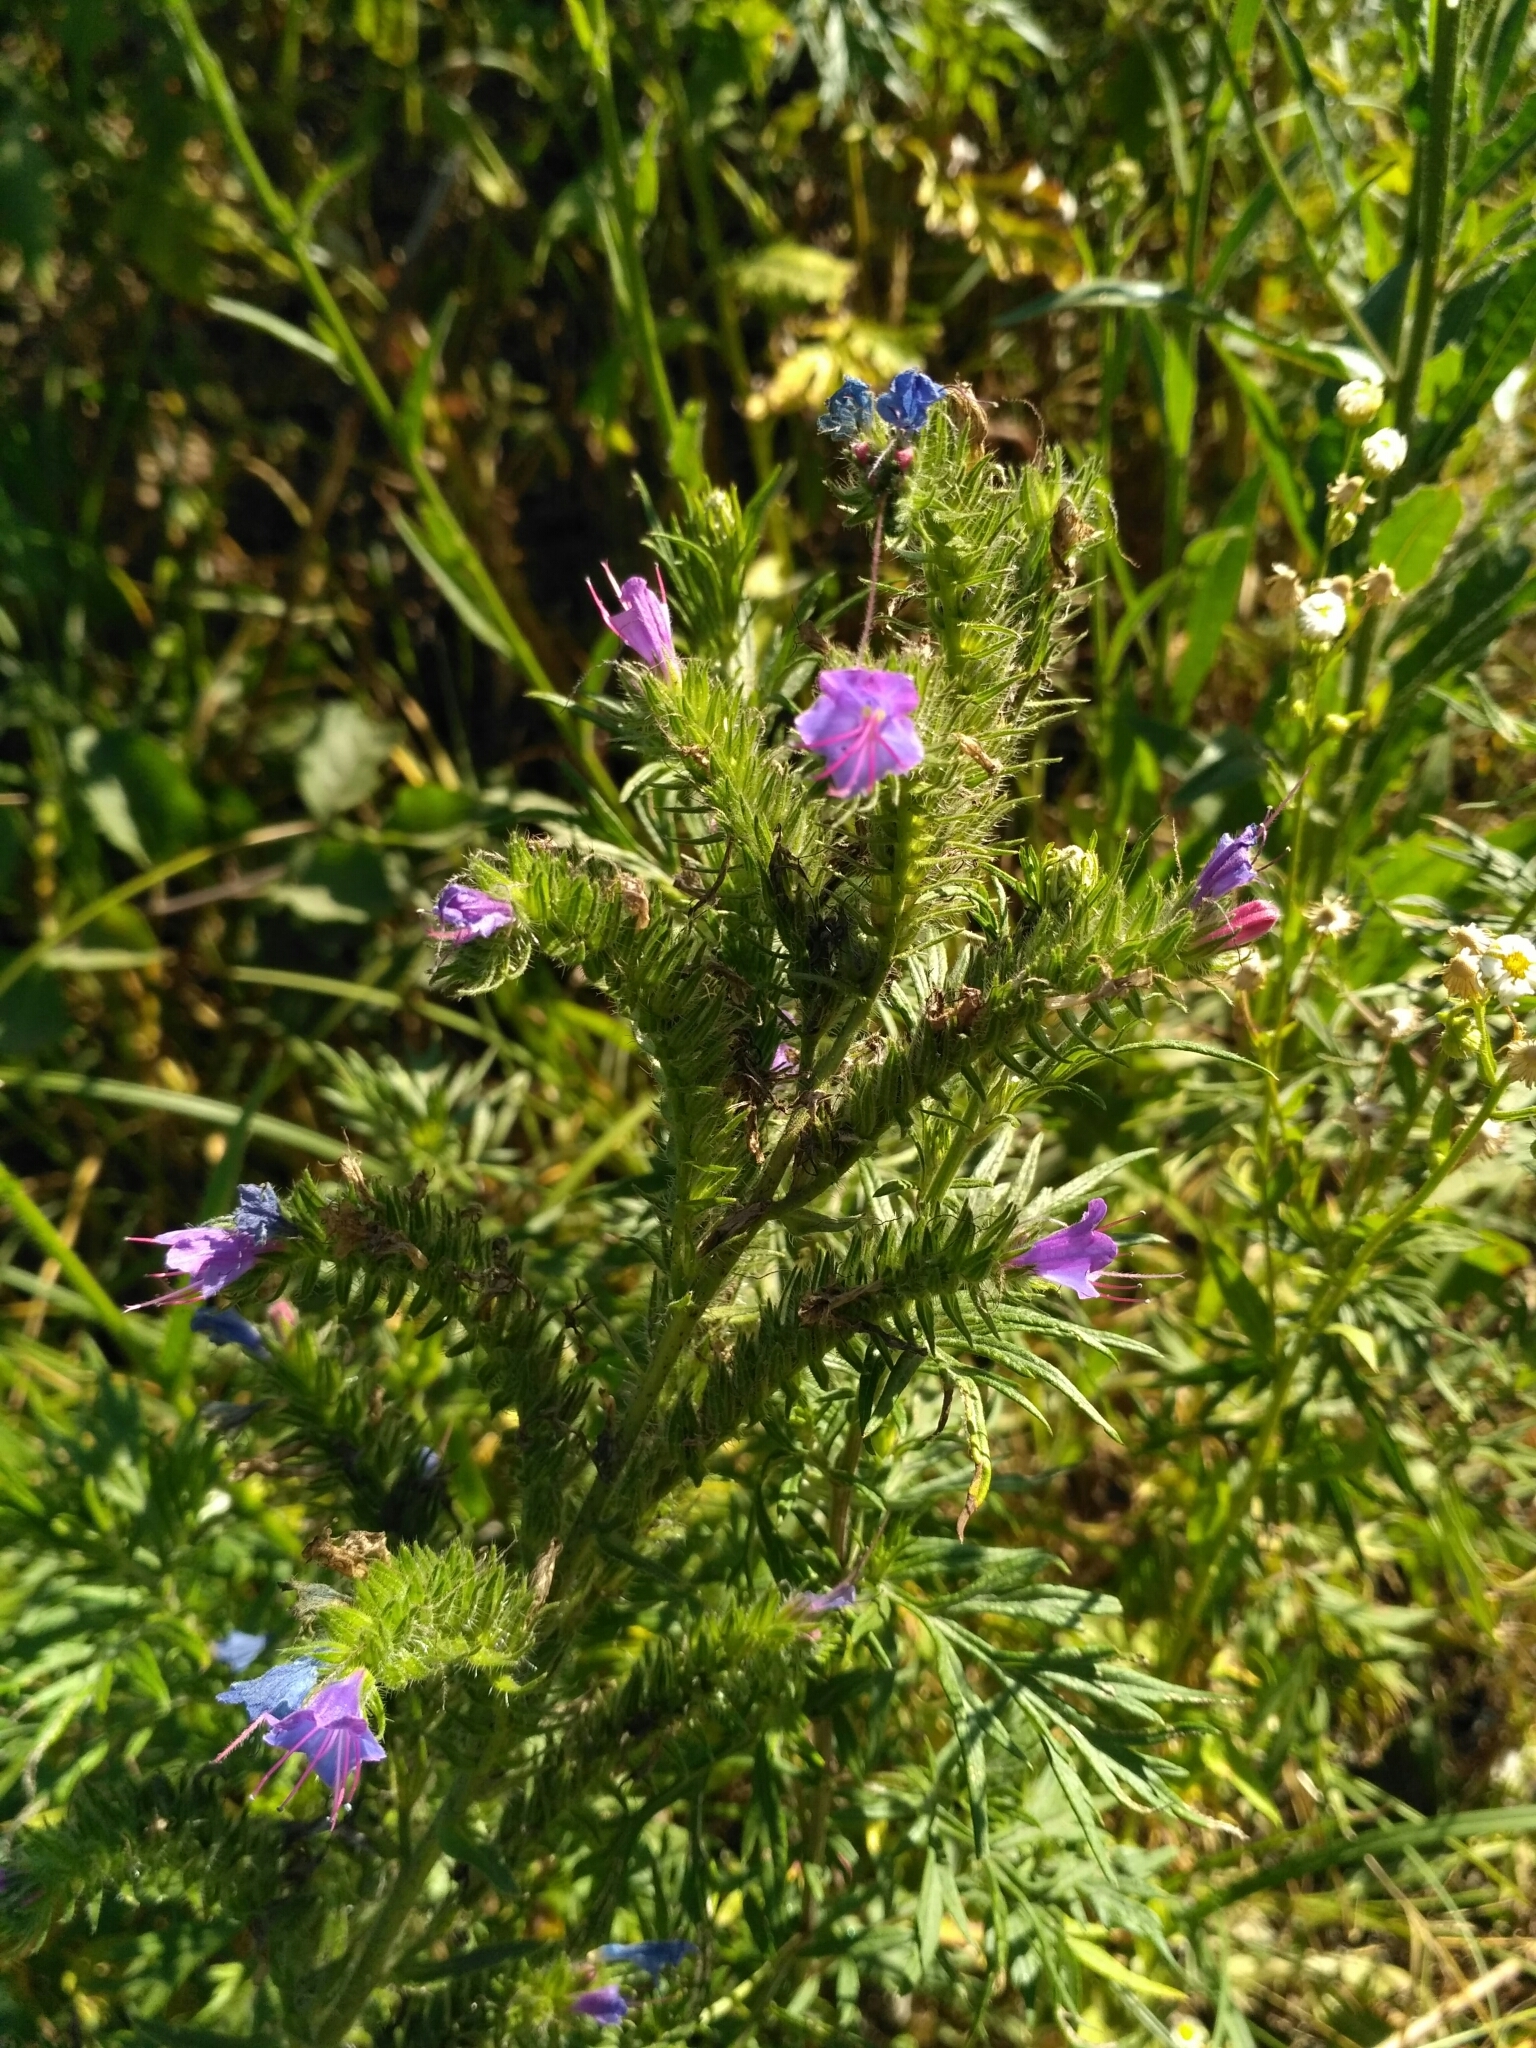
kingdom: Plantae
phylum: Tracheophyta
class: Magnoliopsida
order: Boraginales
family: Boraginaceae
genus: Echium
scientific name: Echium vulgare
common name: Common viper's bugloss
